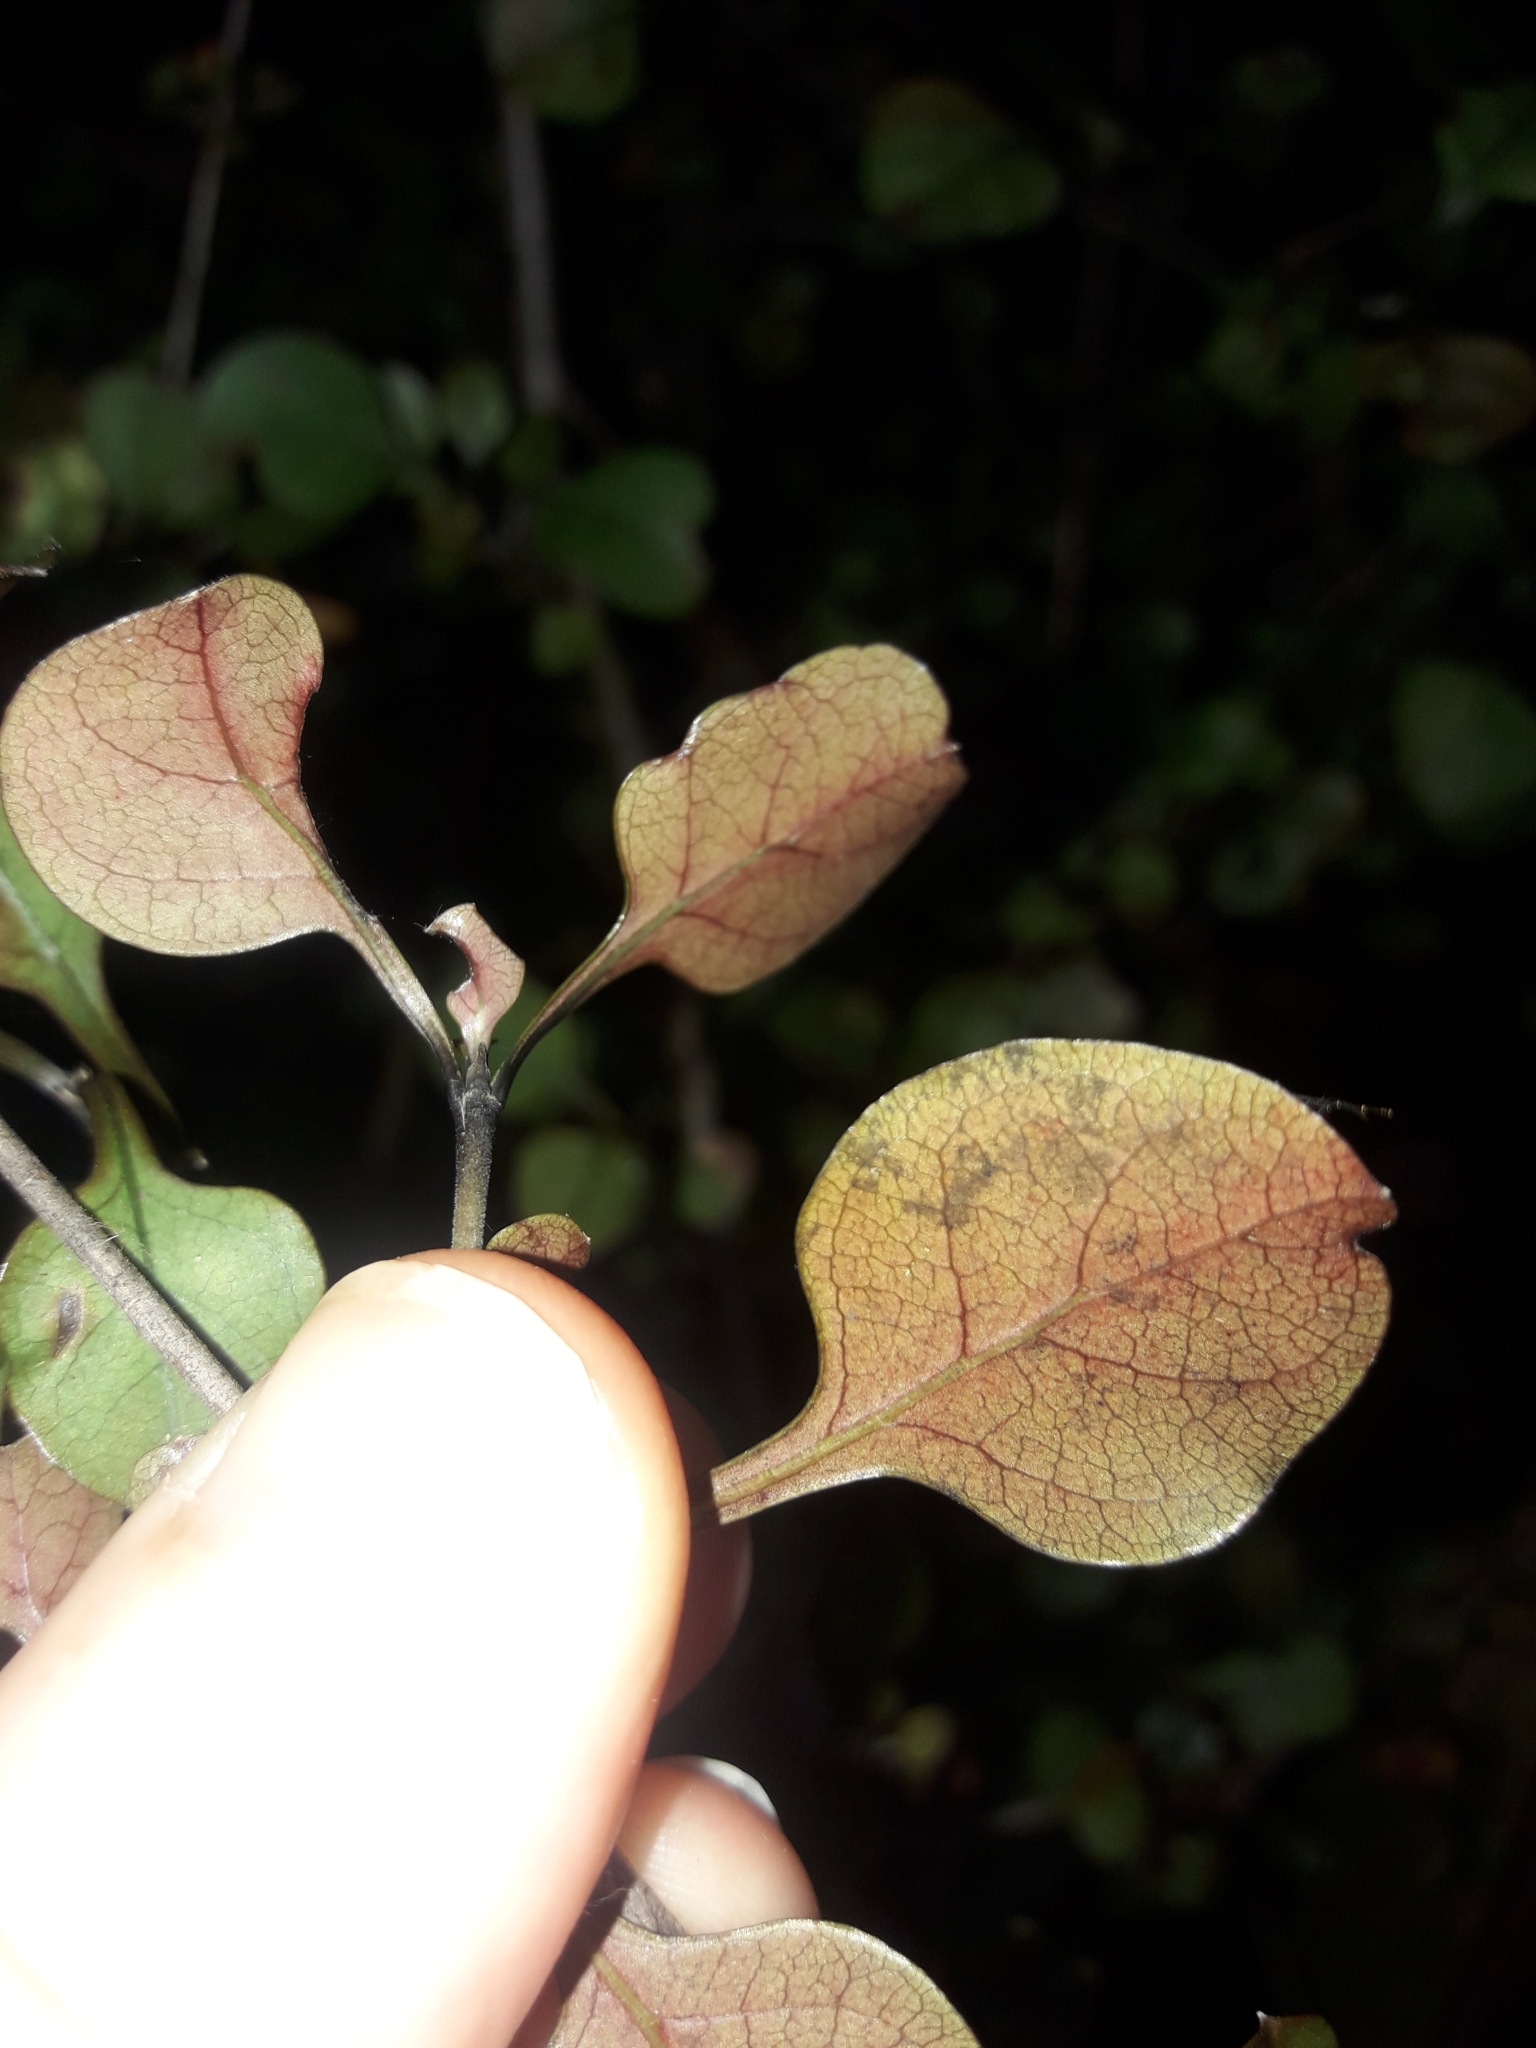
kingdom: Plantae
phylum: Tracheophyta
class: Magnoliopsida
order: Gentianales
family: Rubiaceae
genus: Coprosma
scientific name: Coprosma arborea
